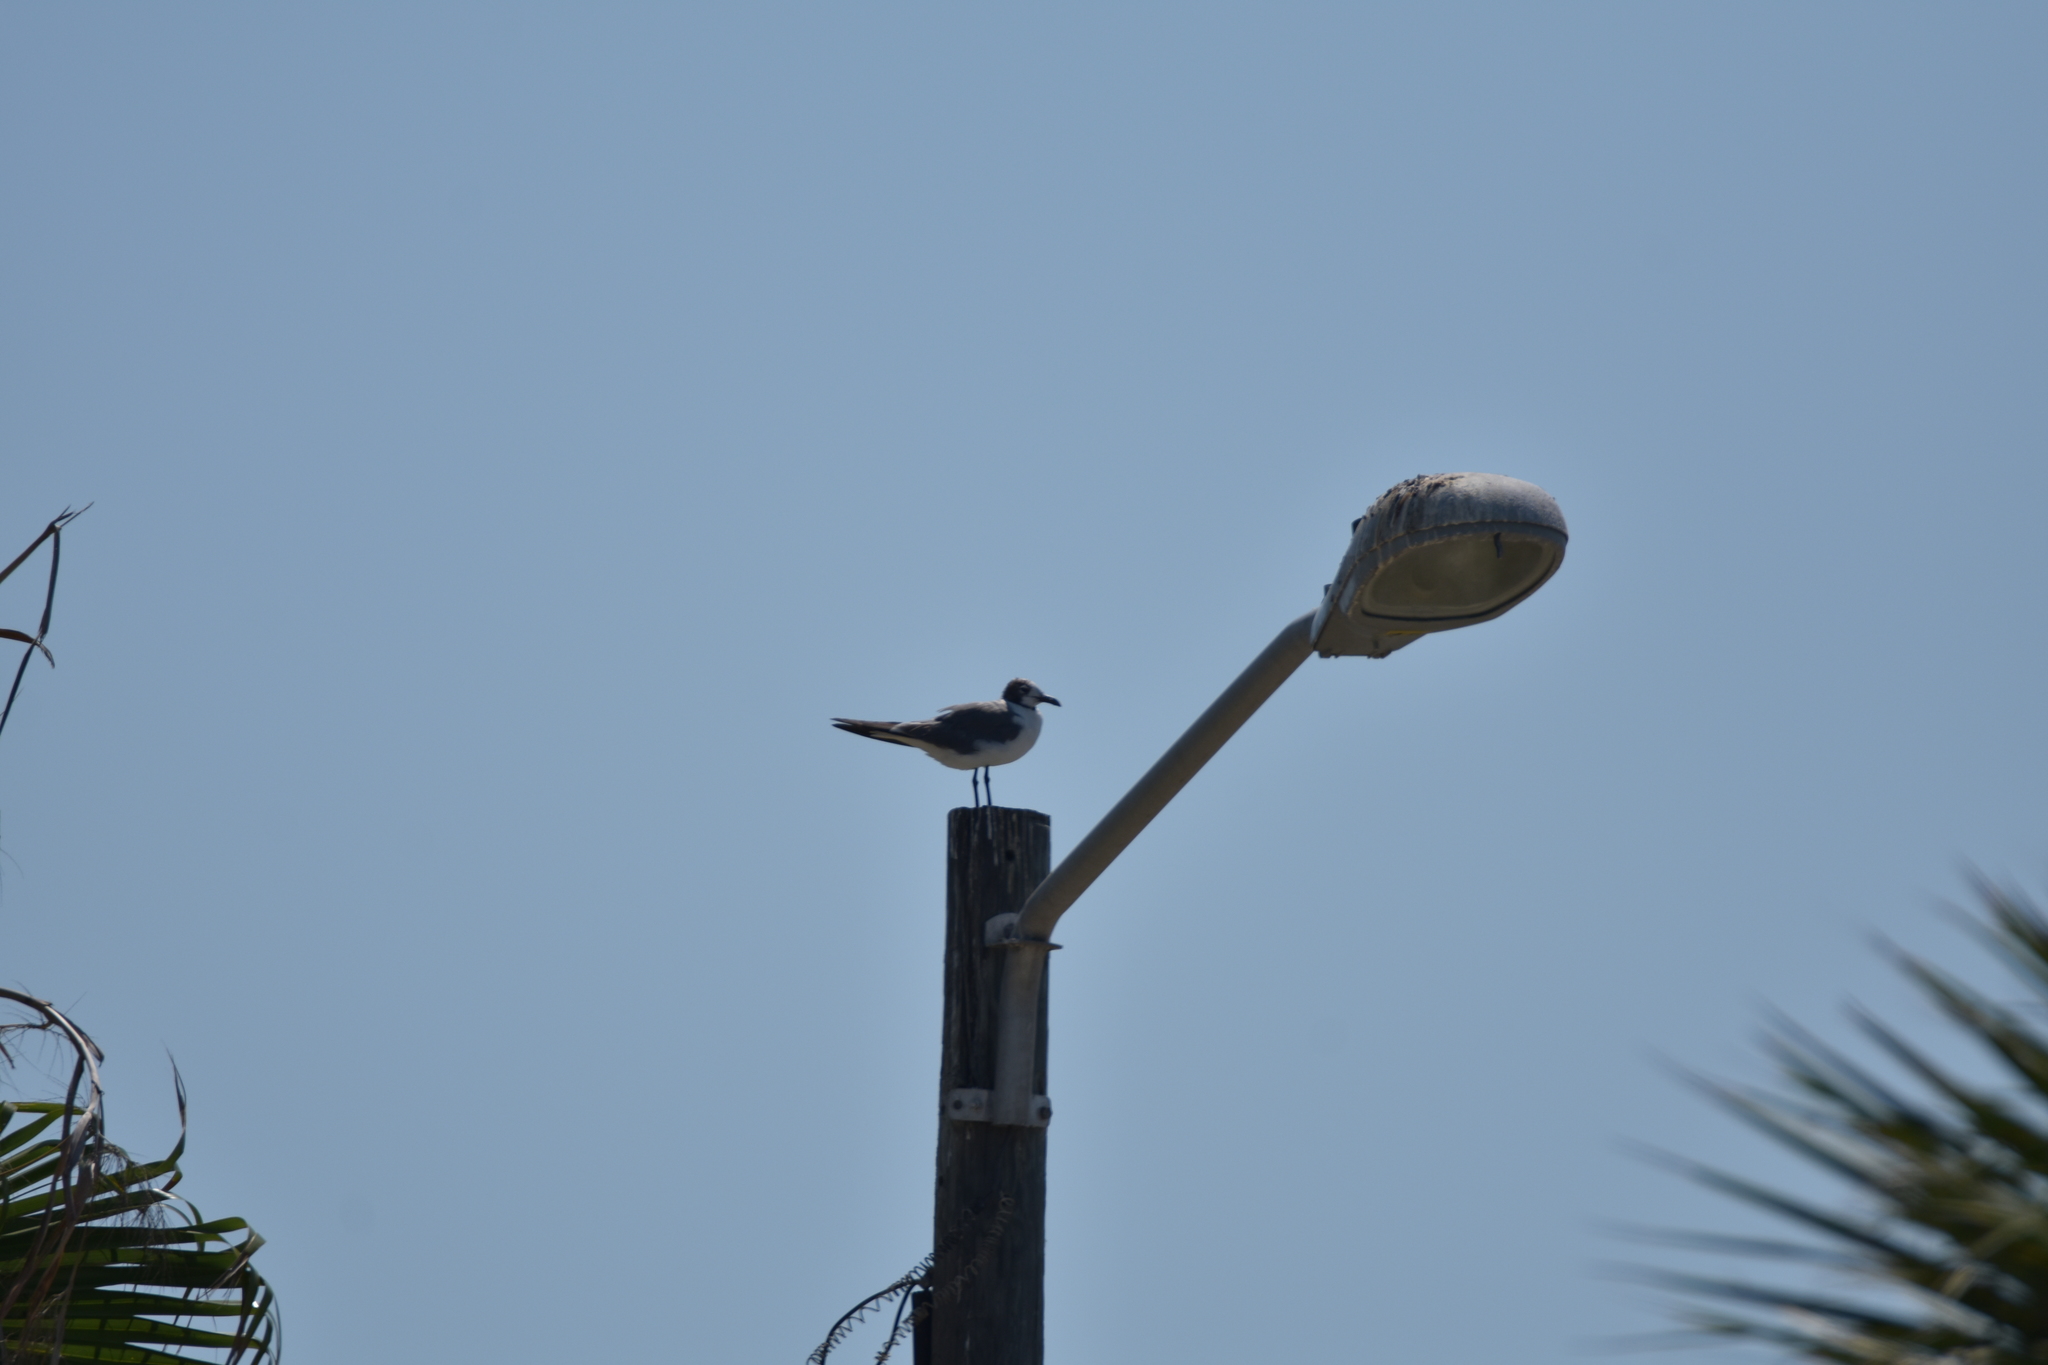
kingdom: Animalia
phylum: Chordata
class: Aves
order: Charadriiformes
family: Laridae
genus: Leucophaeus
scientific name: Leucophaeus atricilla
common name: Laughing gull
